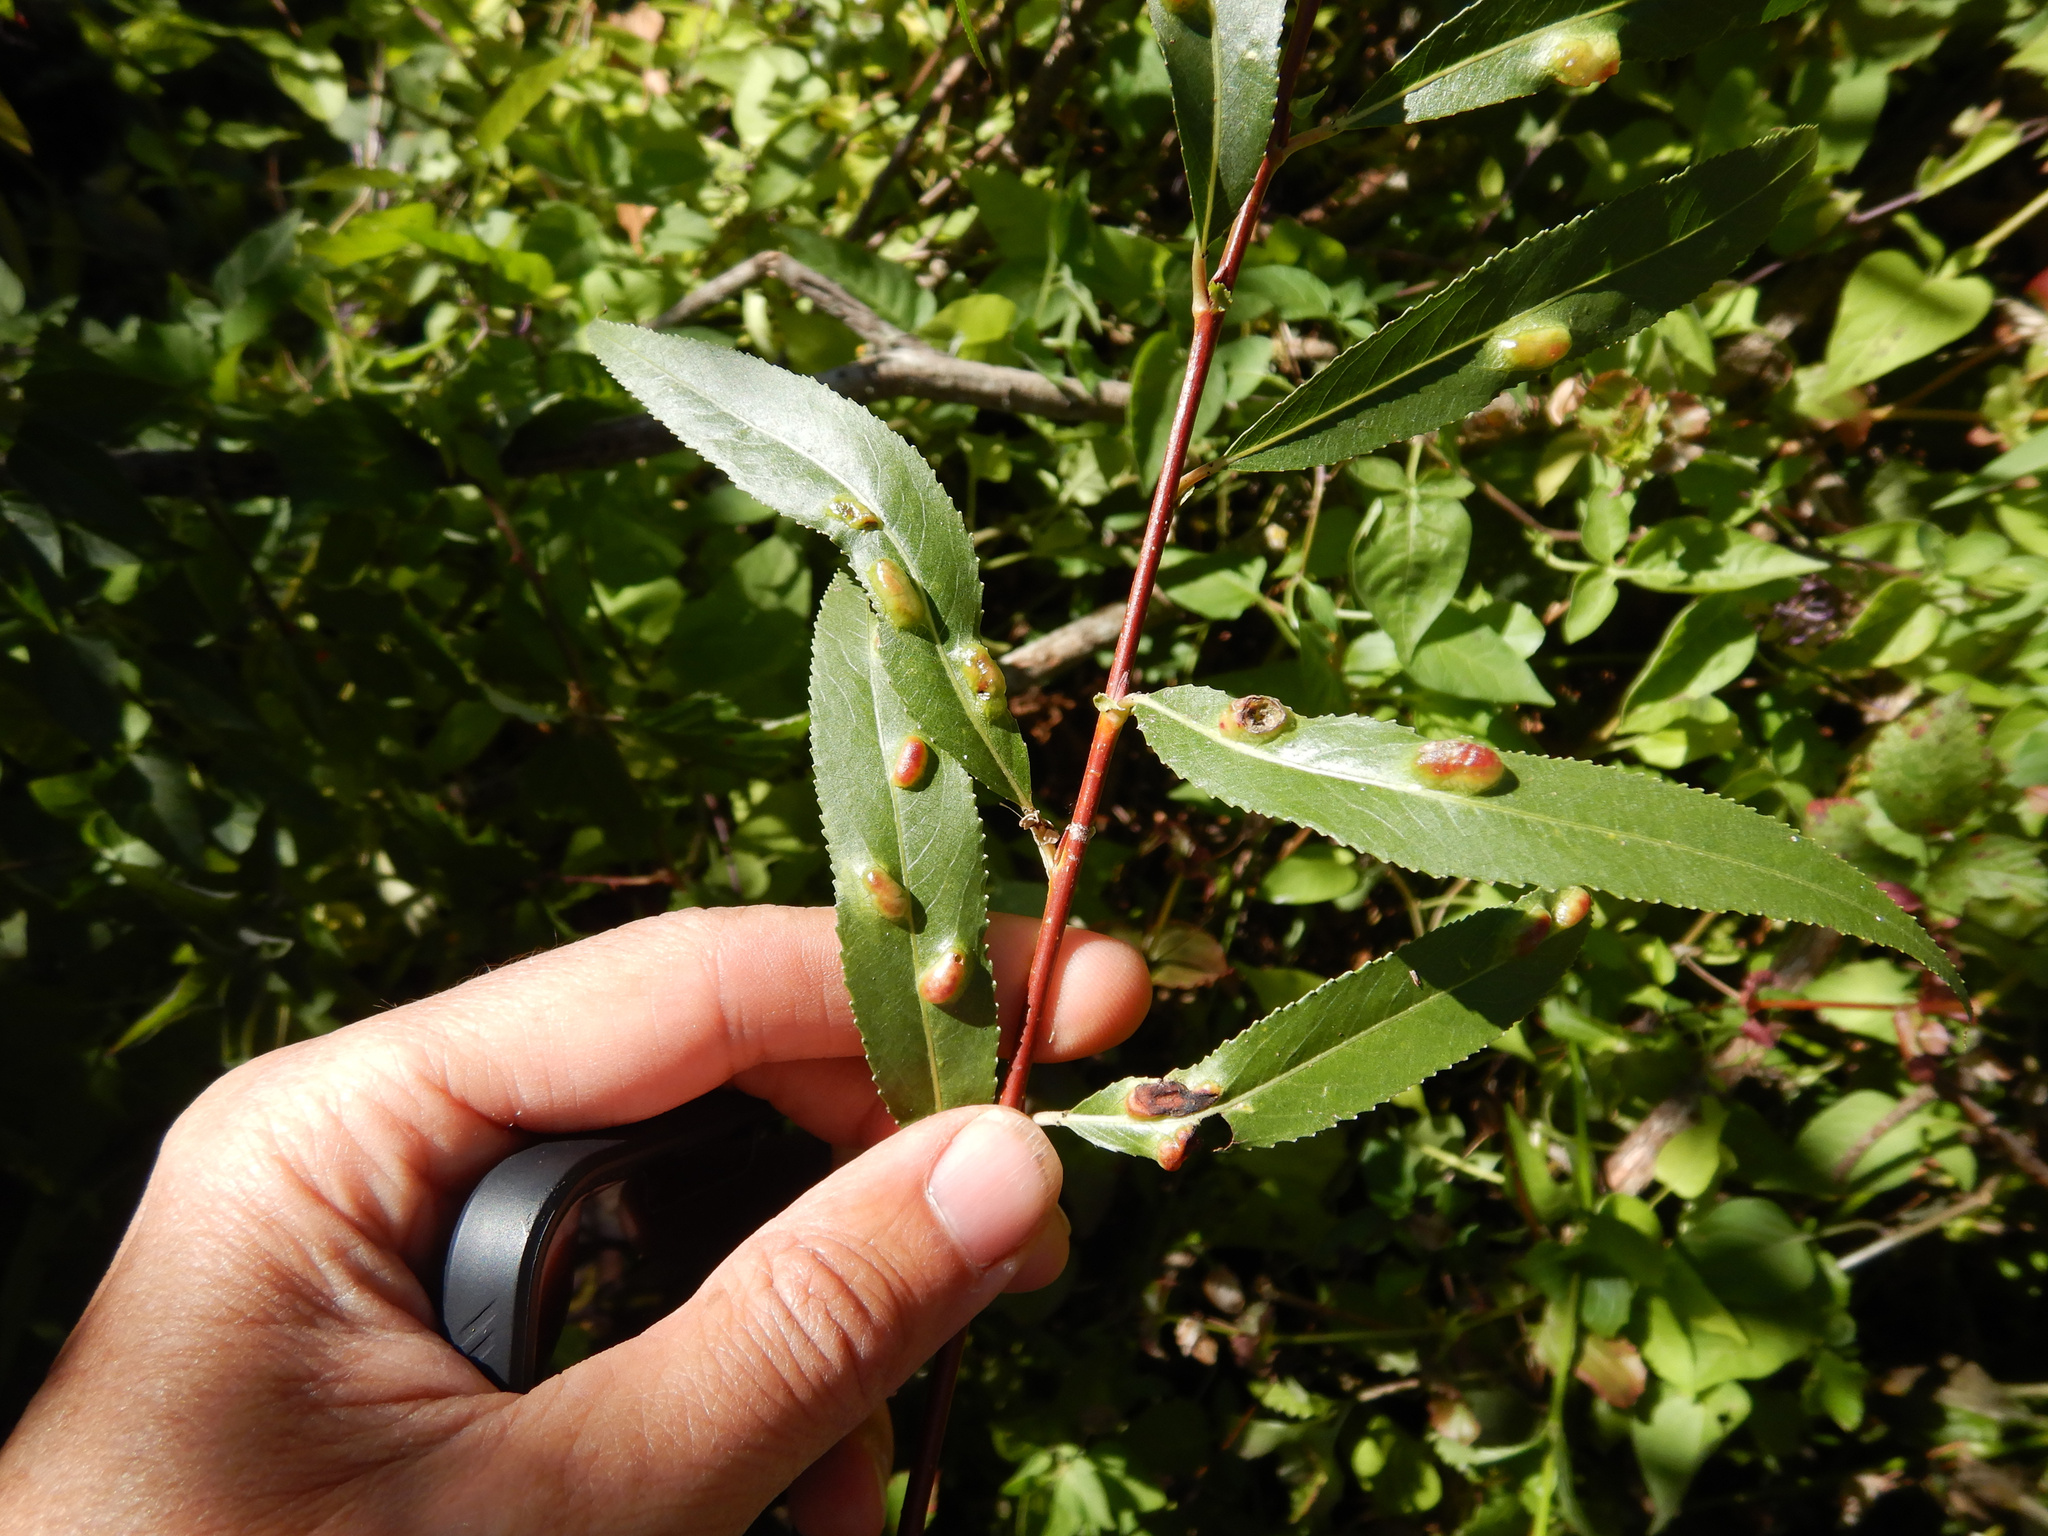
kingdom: Animalia
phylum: Arthropoda
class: Insecta
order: Hymenoptera
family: Tenthredinidae
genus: Pontania
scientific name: Pontania proxima
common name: Common sawfly
